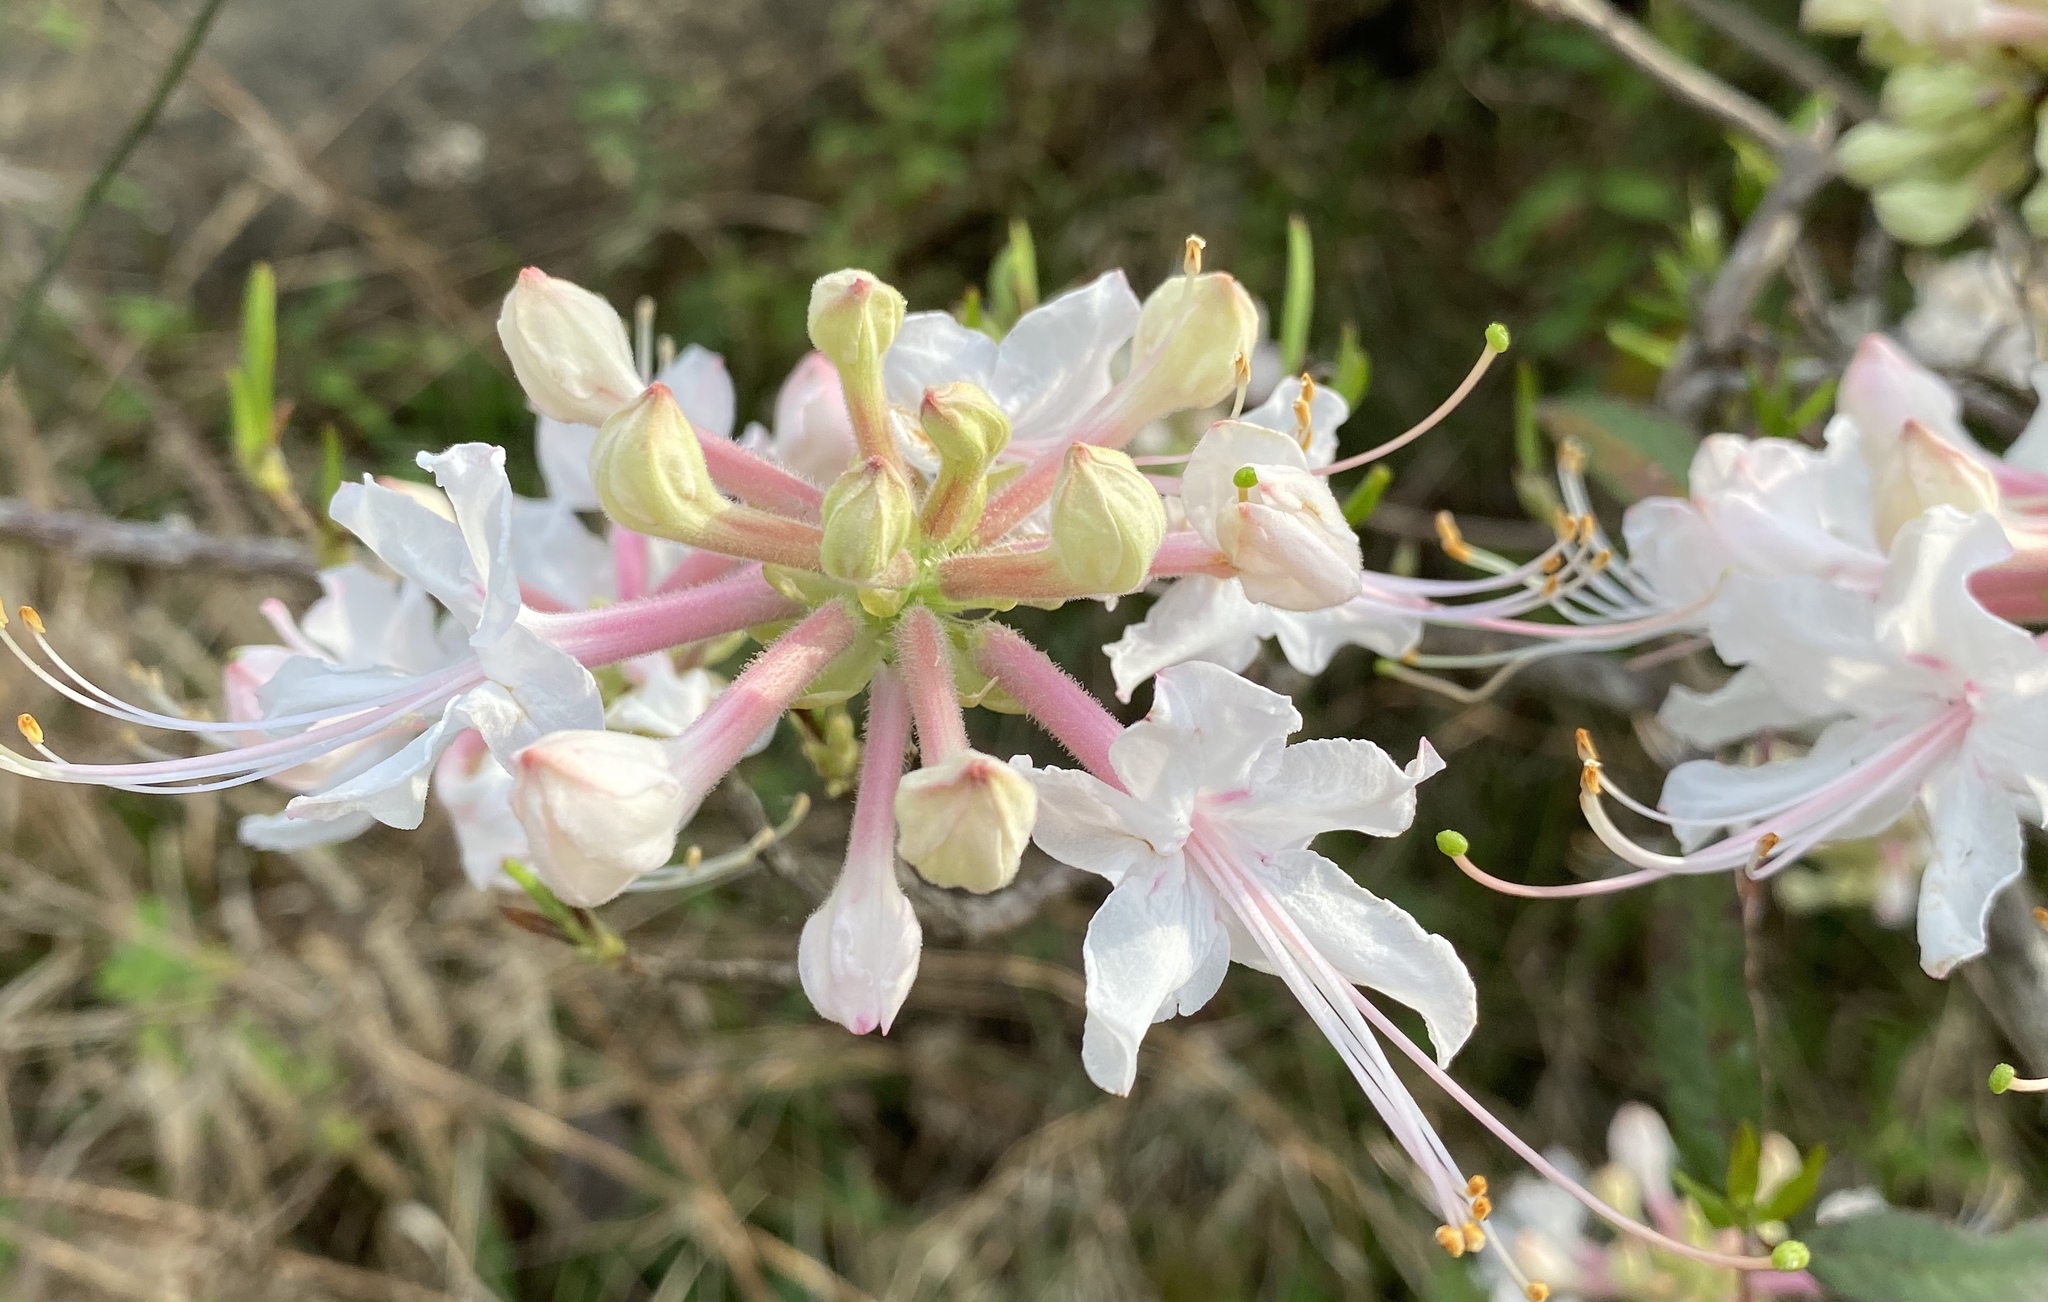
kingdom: Plantae
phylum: Tracheophyta
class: Magnoliopsida
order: Ericales
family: Ericaceae
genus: Rhododendron
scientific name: Rhododendron canescens
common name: Mountain azalea
